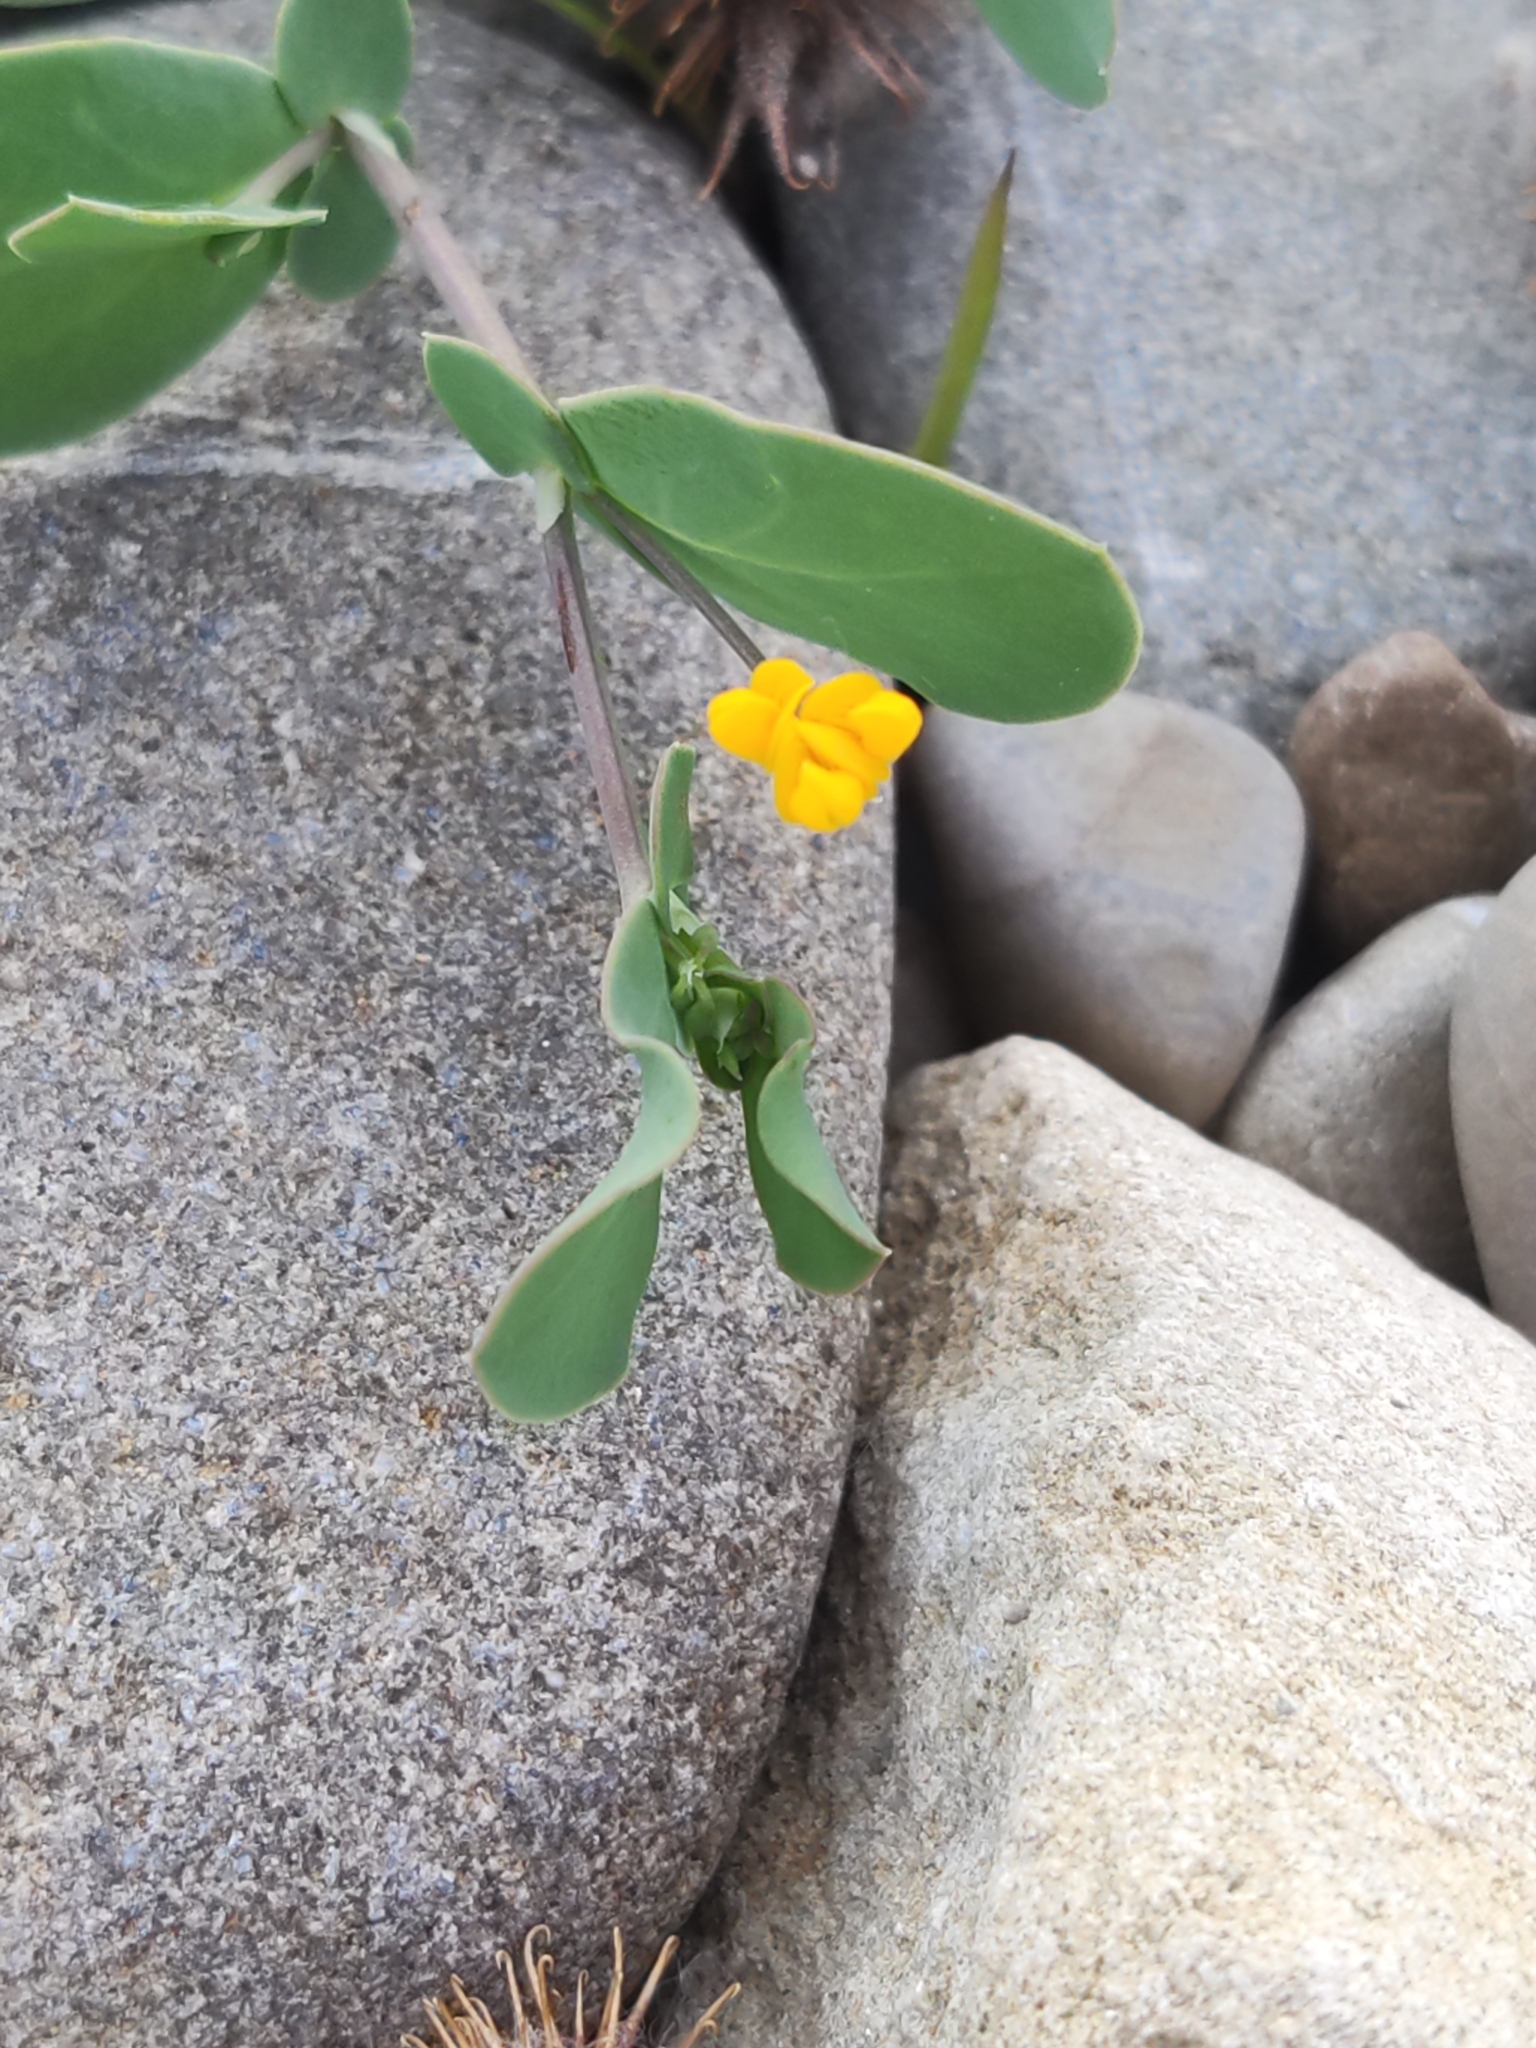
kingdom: Plantae
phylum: Tracheophyta
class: Magnoliopsida
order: Fabales
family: Fabaceae
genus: Coronilla
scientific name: Coronilla scorpioides
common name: Annual scorpion-vetch
